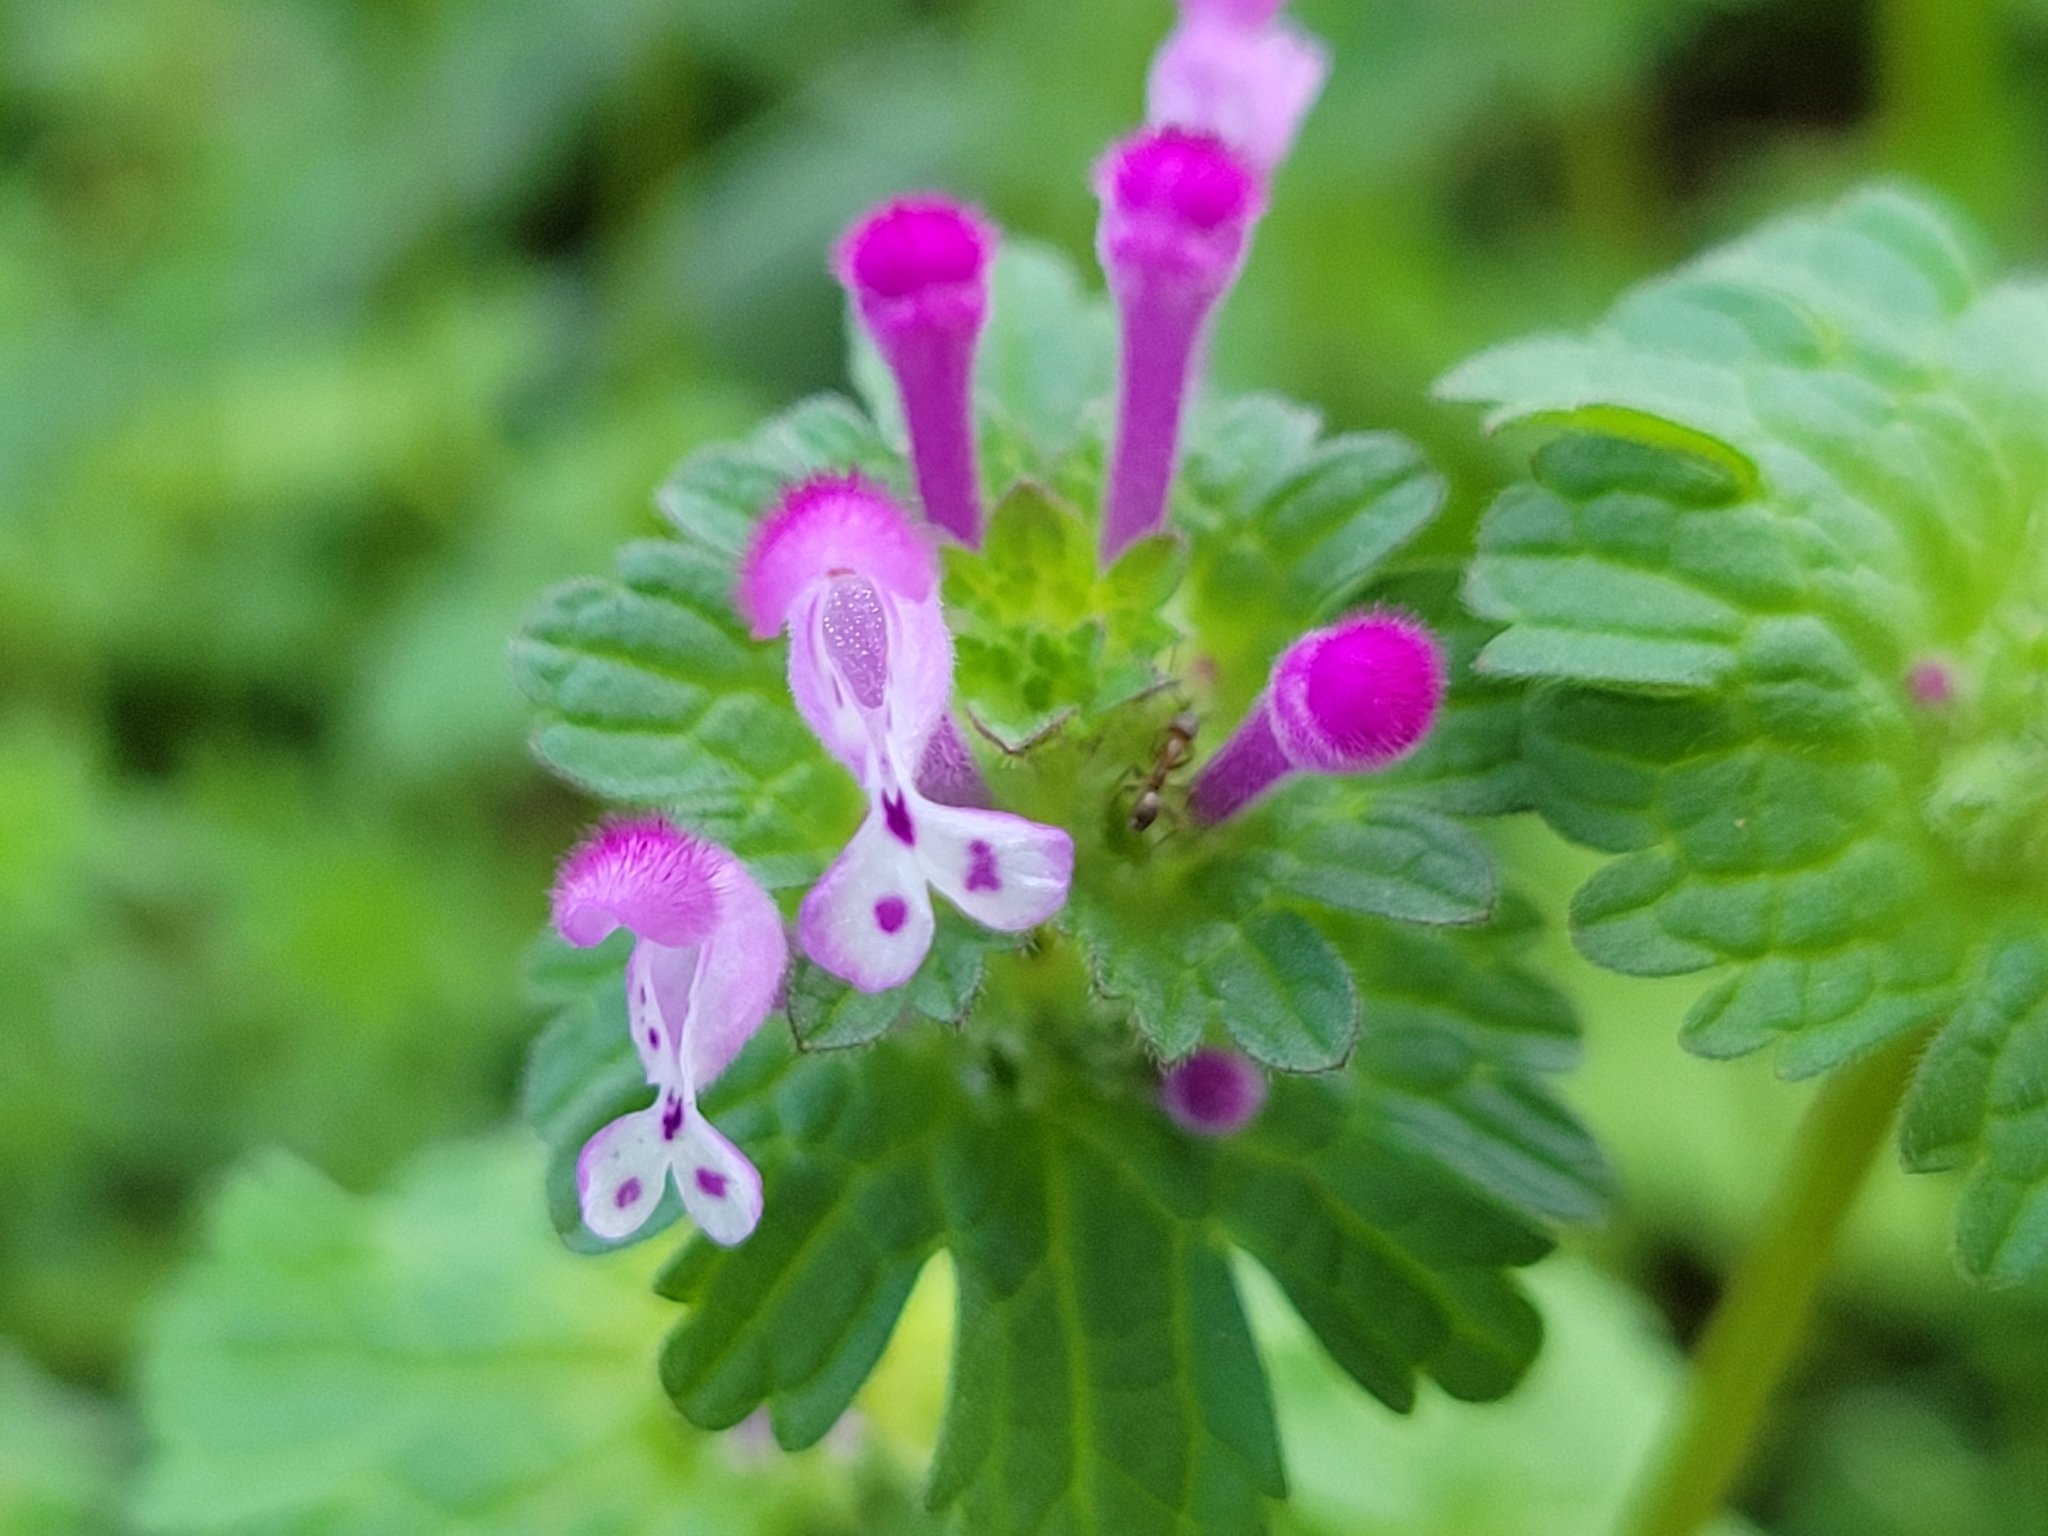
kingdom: Plantae
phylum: Tracheophyta
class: Magnoliopsida
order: Lamiales
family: Lamiaceae
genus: Lamium
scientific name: Lamium amplexicaule
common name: Henbit dead-nettle
